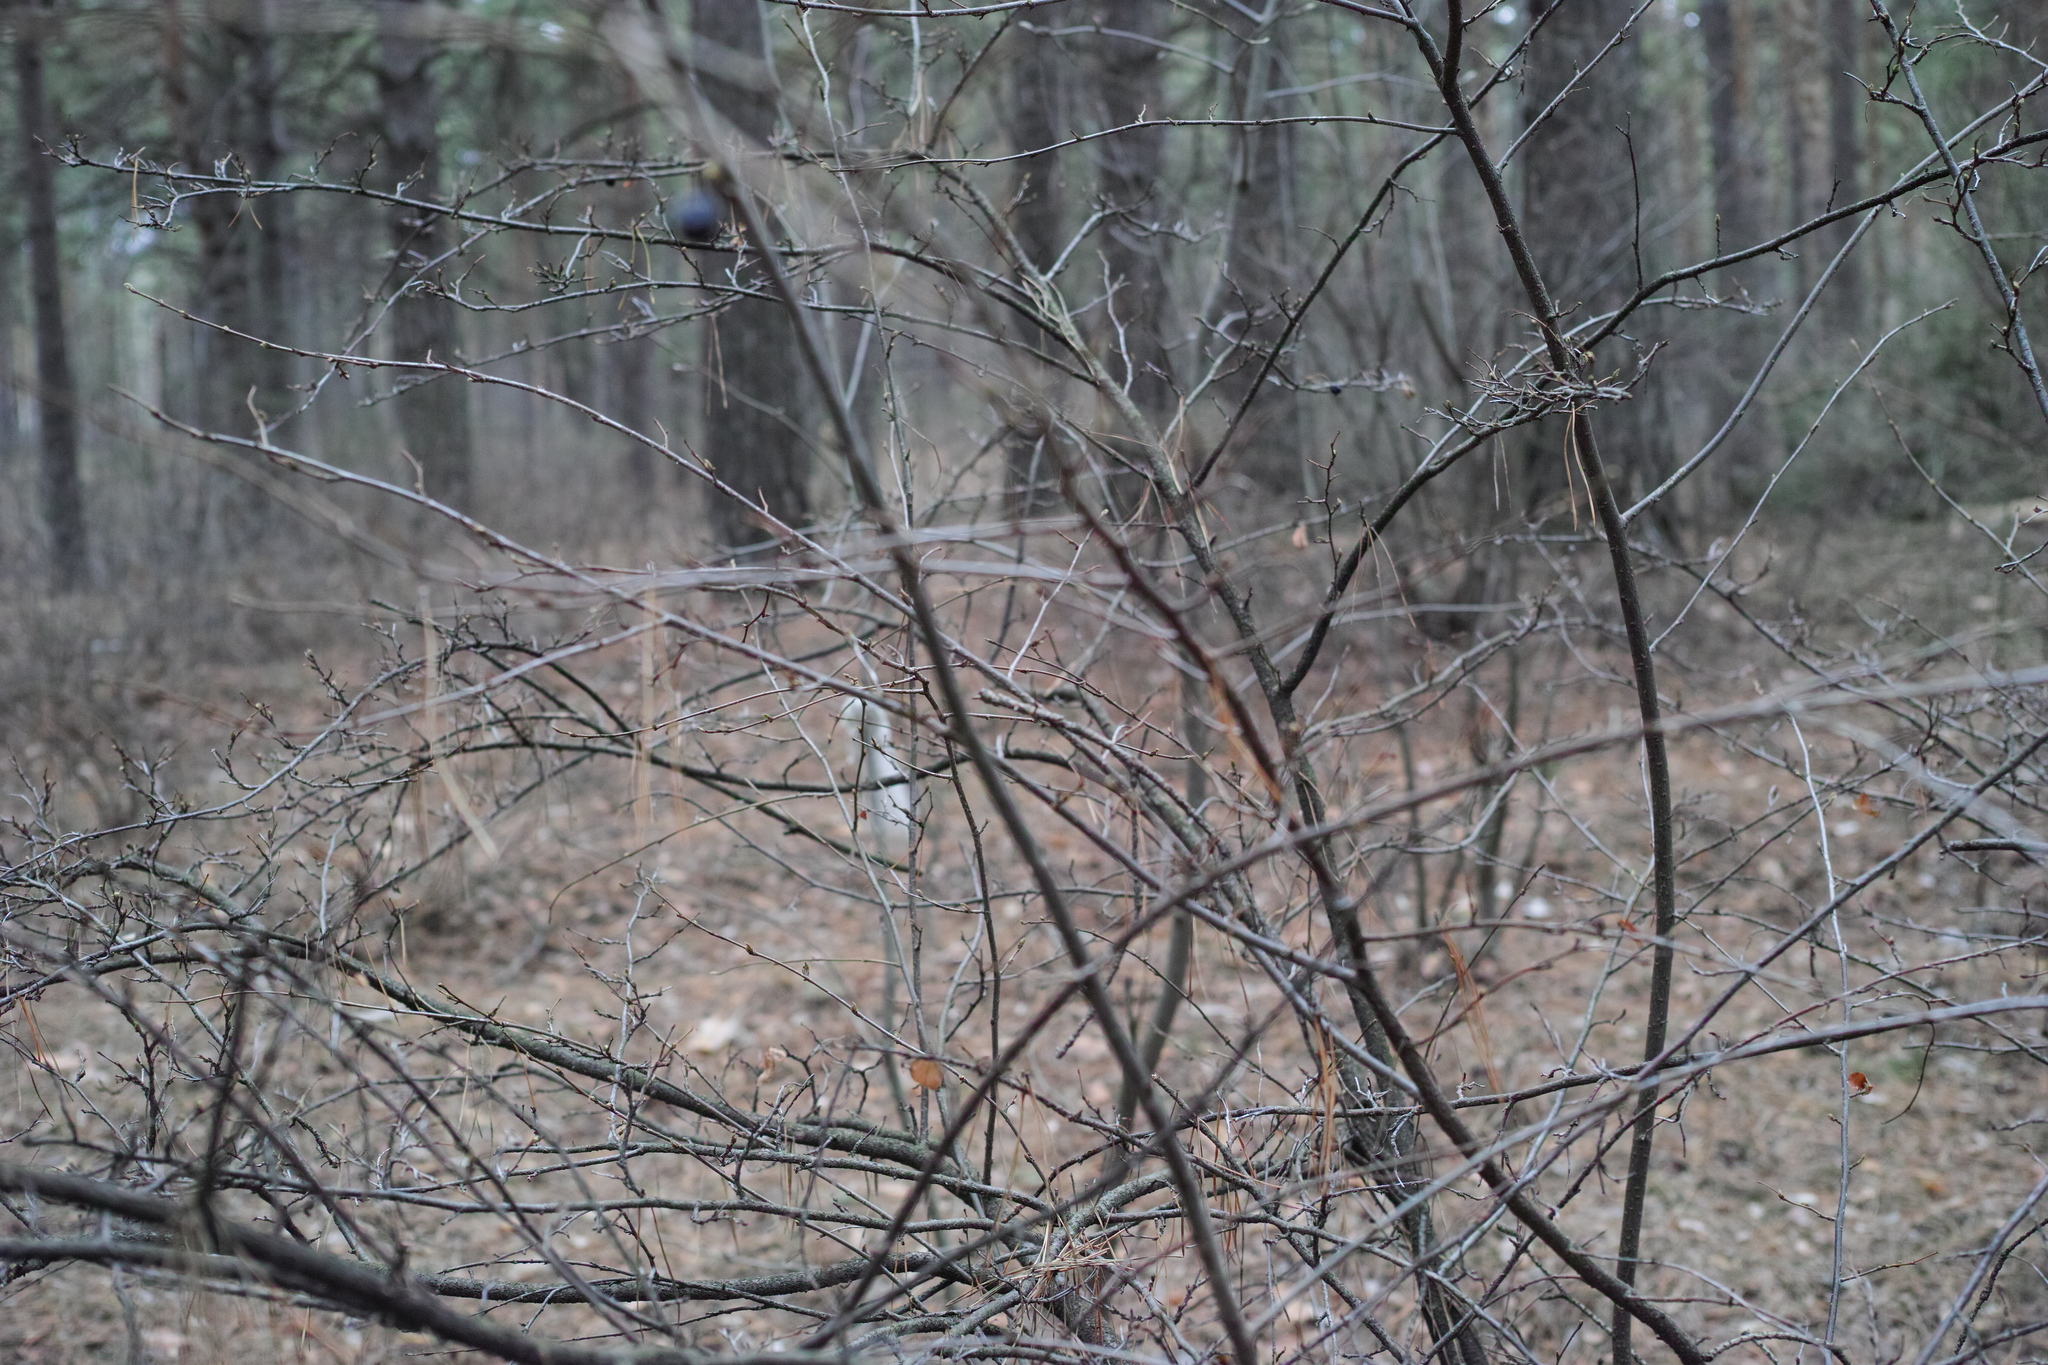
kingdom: Plantae
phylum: Tracheophyta
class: Magnoliopsida
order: Rosales
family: Rosaceae
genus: Cotoneaster
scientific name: Cotoneaster melanocarpus
